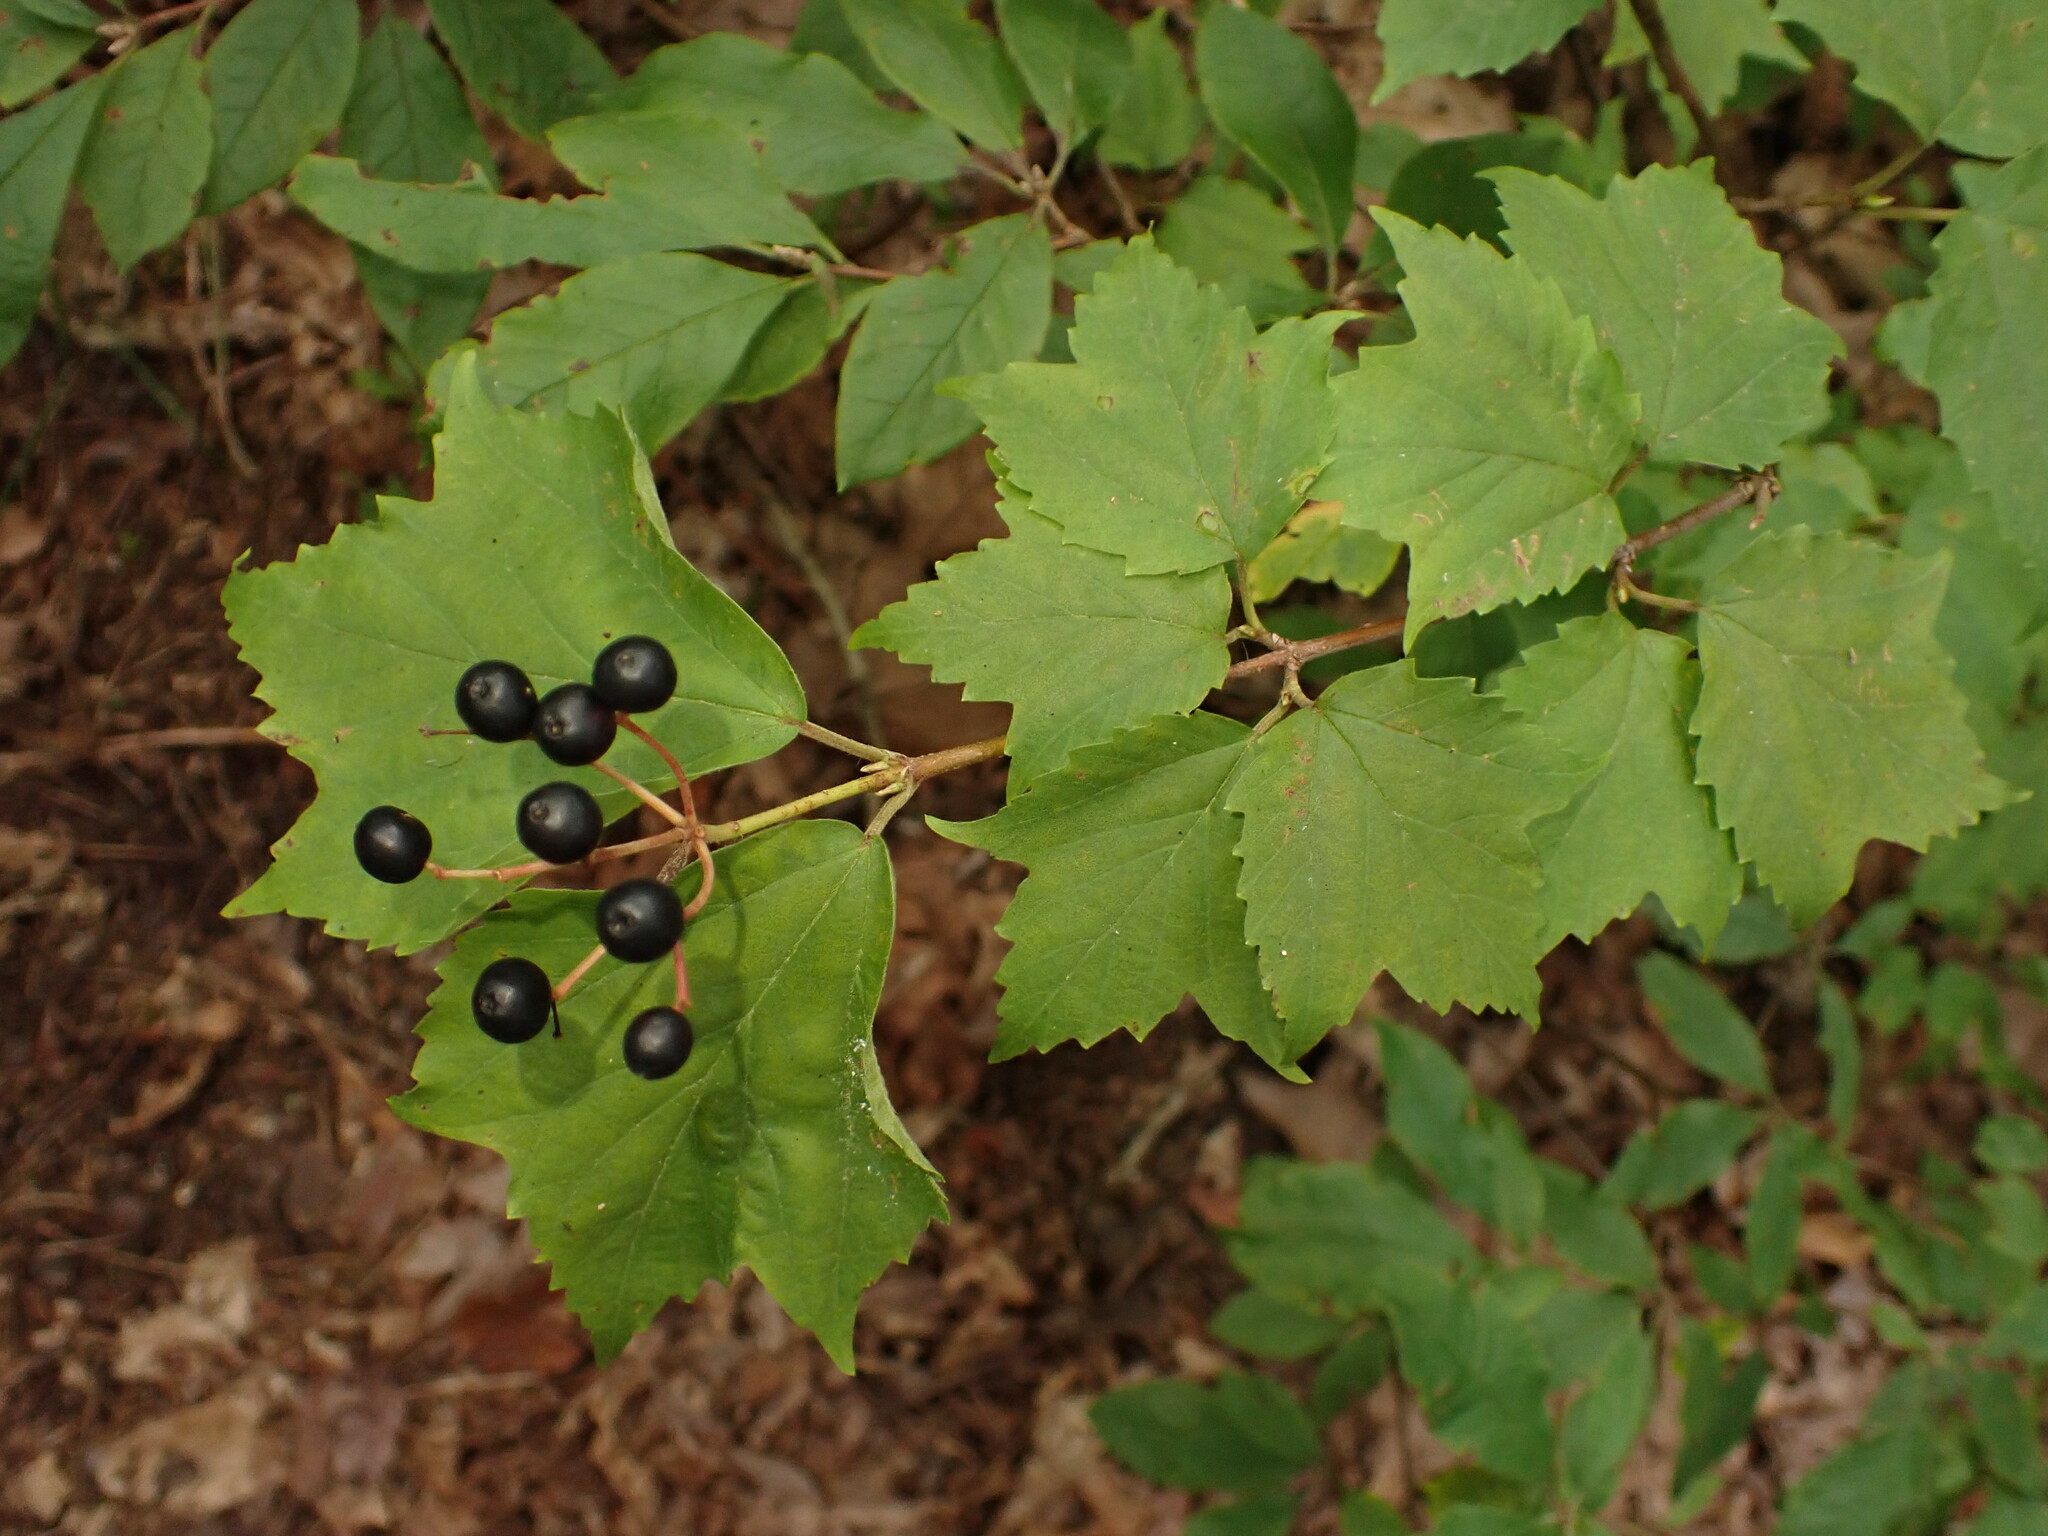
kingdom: Plantae
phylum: Tracheophyta
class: Magnoliopsida
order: Dipsacales
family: Viburnaceae
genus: Viburnum
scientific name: Viburnum acerifolium
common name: Dockmackie
